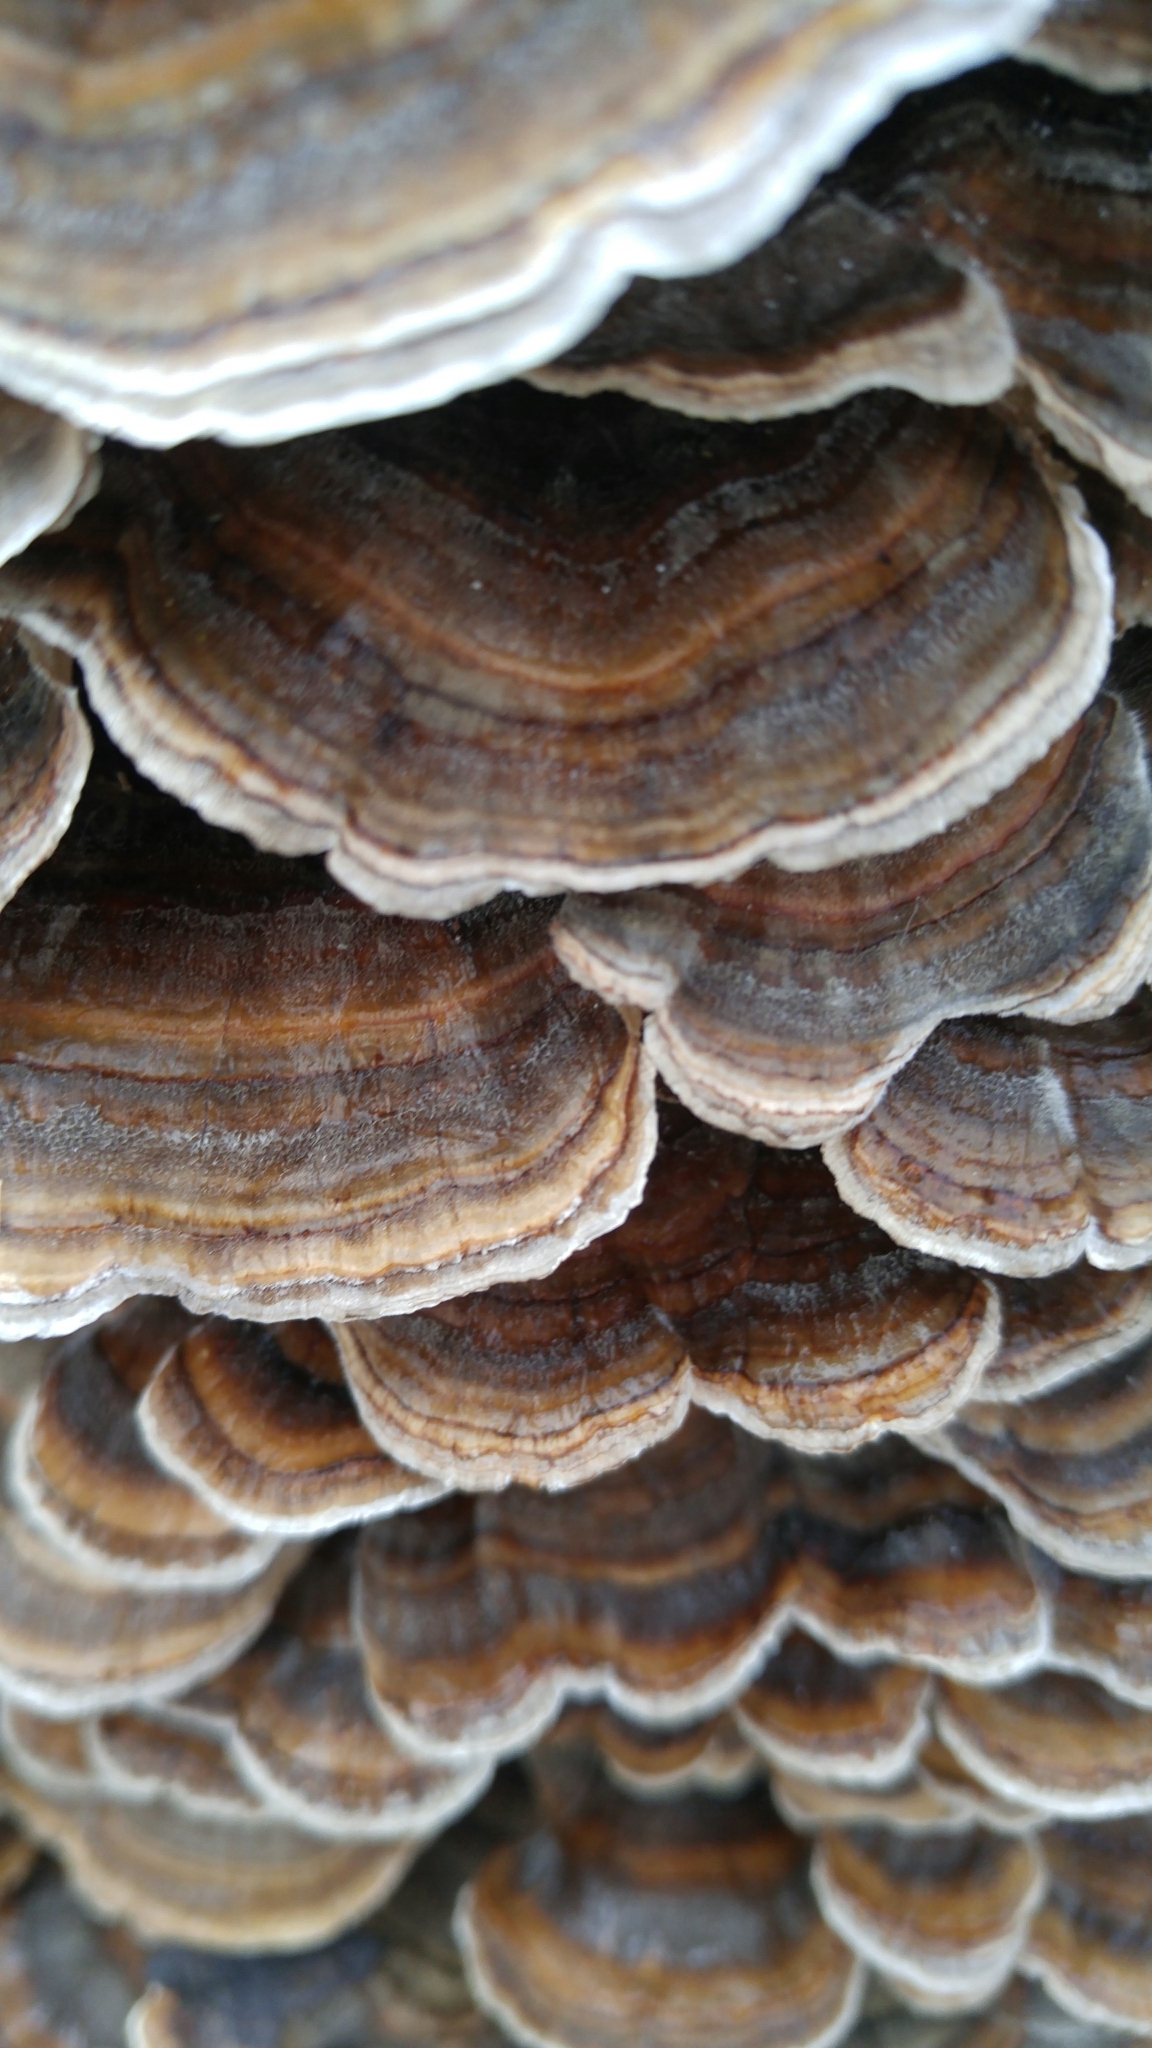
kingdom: Fungi
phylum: Basidiomycota
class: Agaricomycetes
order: Polyporales
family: Polyporaceae
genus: Trametes
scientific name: Trametes versicolor
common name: Turkeytail
